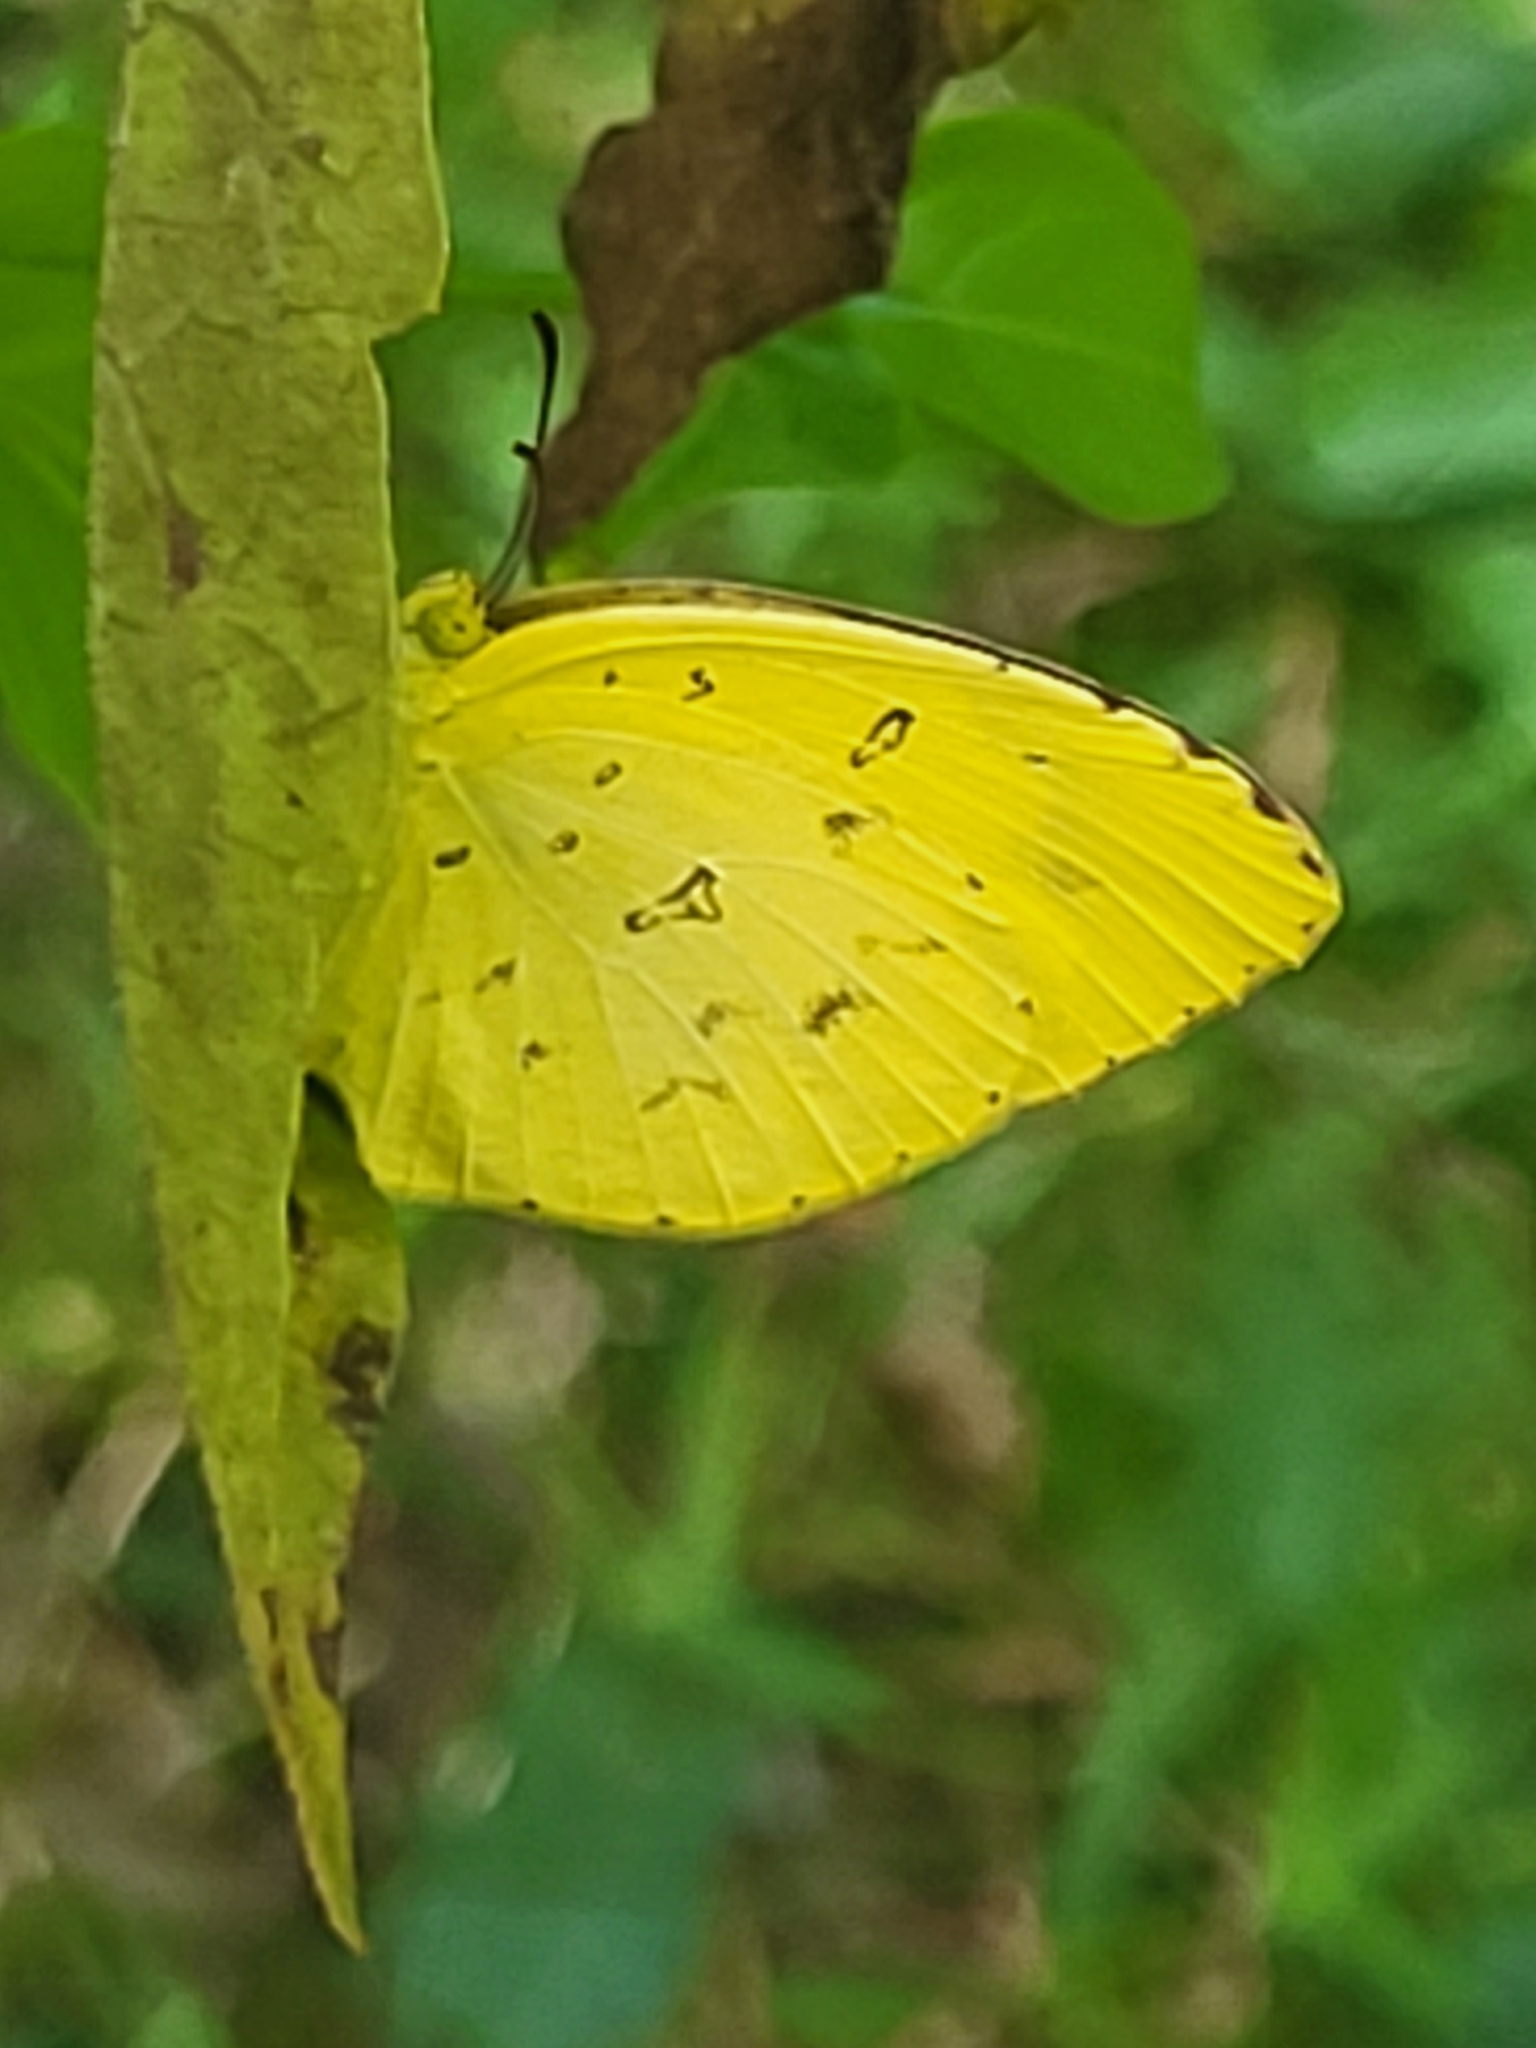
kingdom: Animalia
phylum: Arthropoda
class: Insecta
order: Lepidoptera
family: Pieridae
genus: Eurema
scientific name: Eurema hecabe
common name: Pale grass yellow
